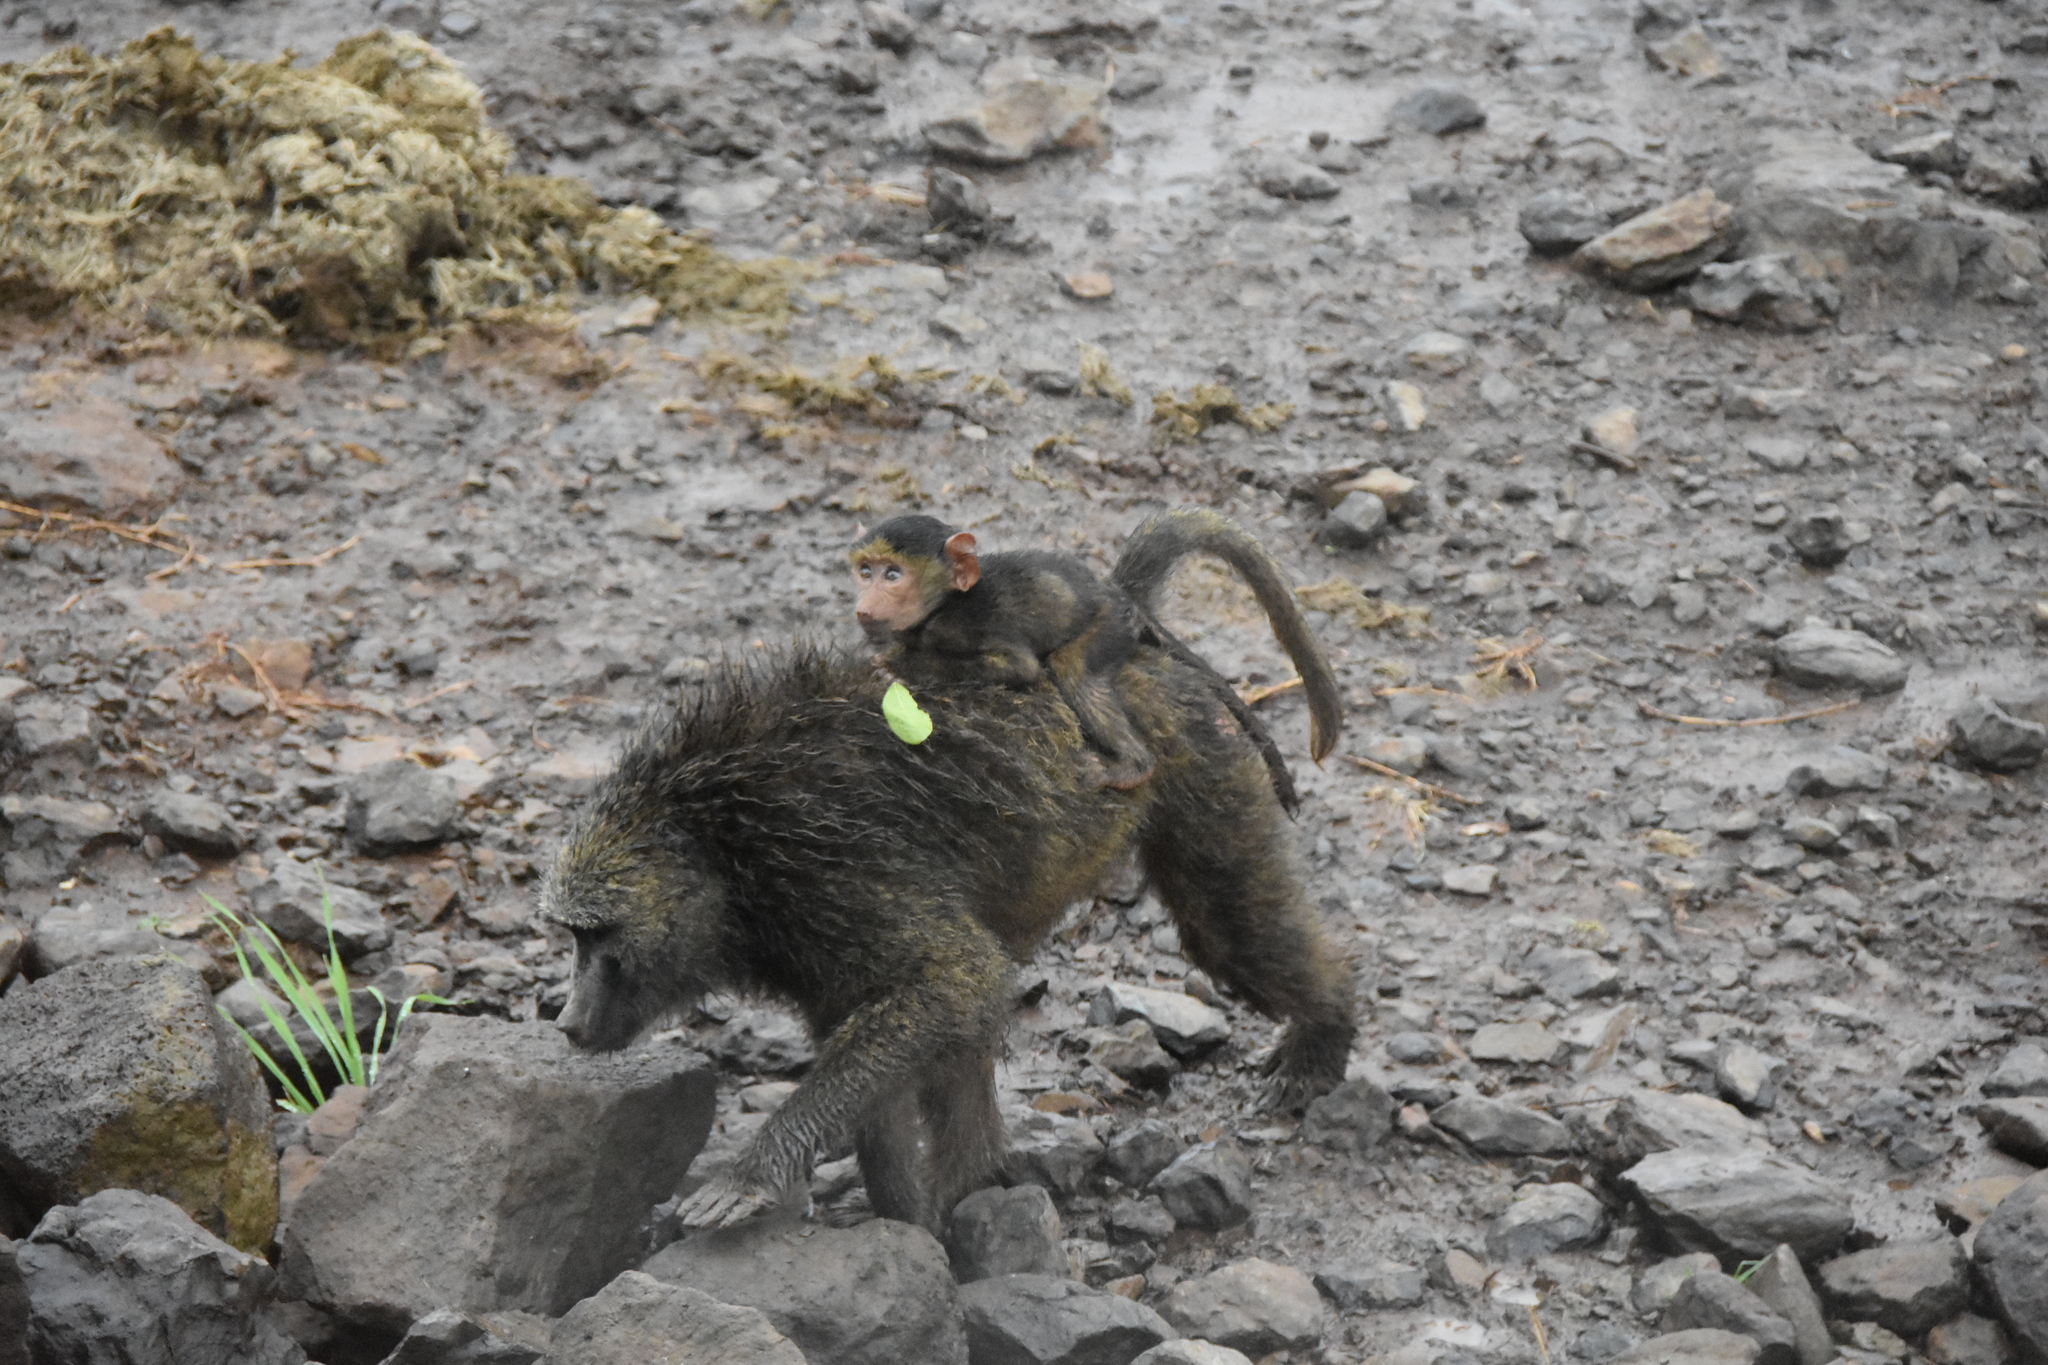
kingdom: Animalia
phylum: Chordata
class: Mammalia
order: Primates
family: Cercopithecidae
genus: Papio
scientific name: Papio anubis
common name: Olive baboon
